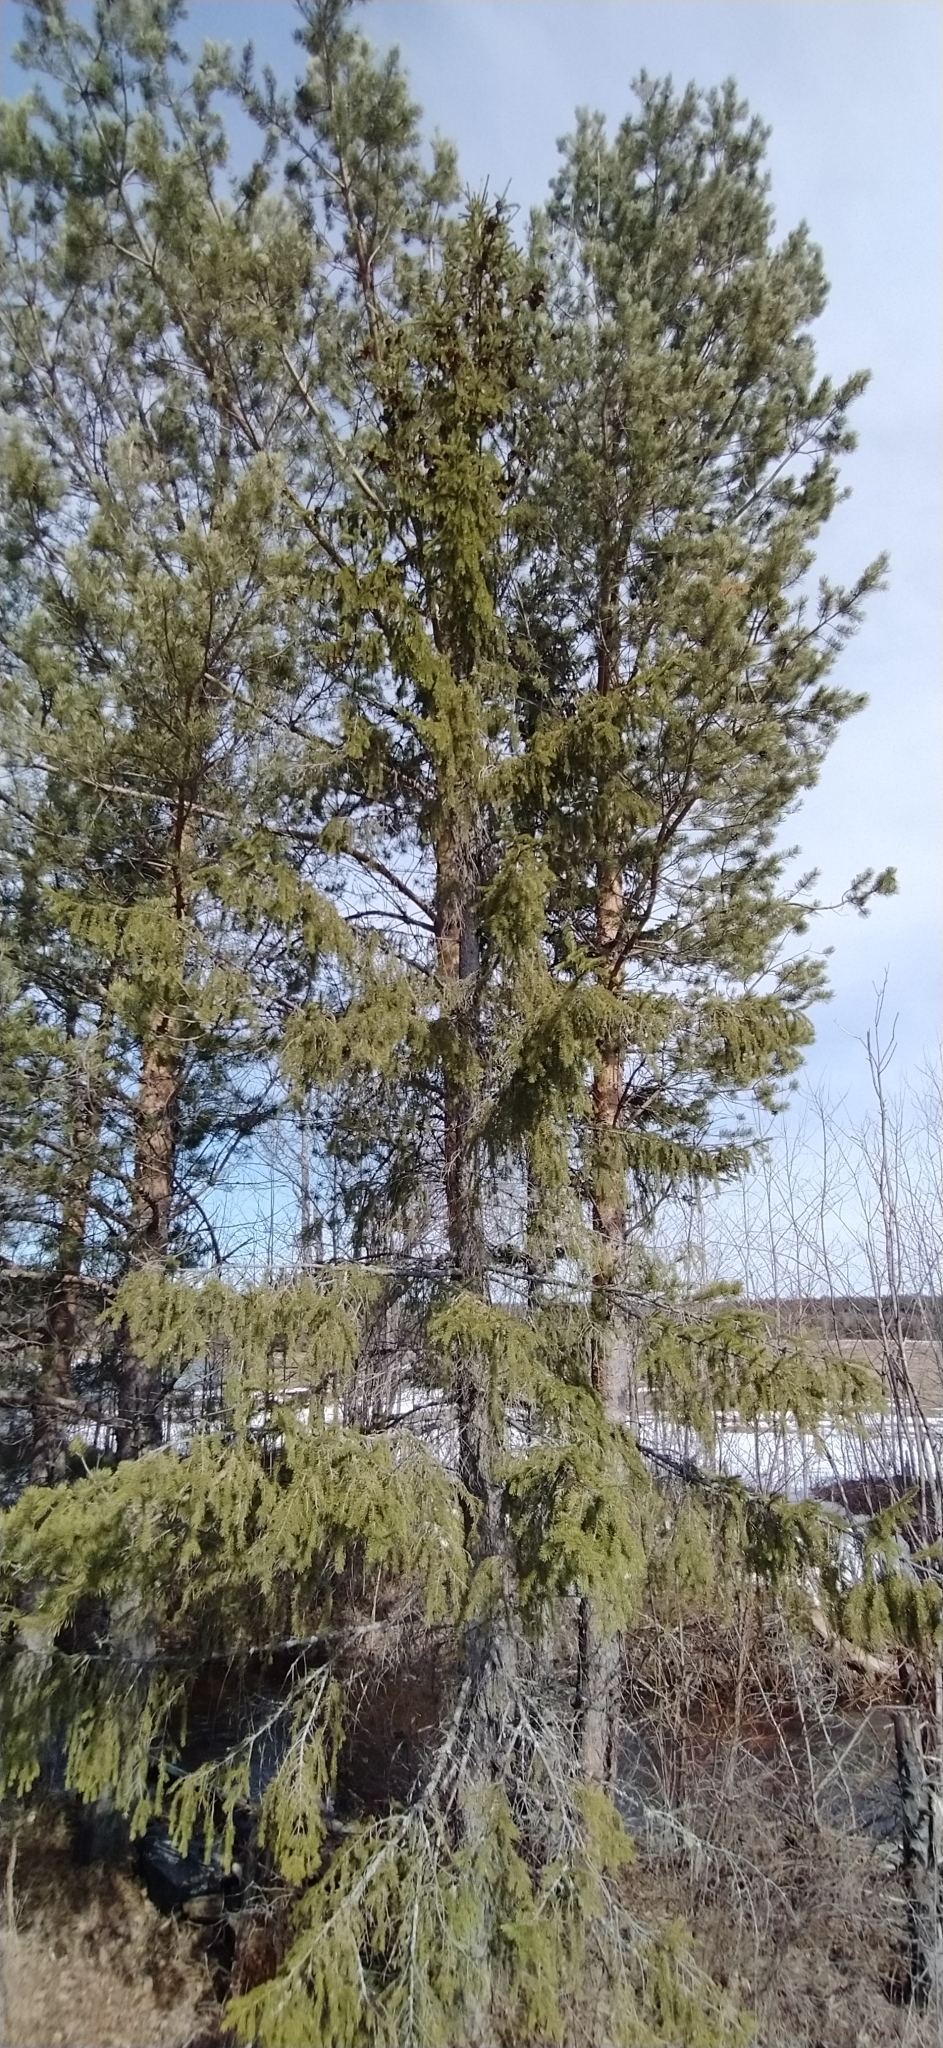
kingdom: Plantae
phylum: Tracheophyta
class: Pinopsida
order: Pinales
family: Pinaceae
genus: Picea
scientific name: Picea obovata
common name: Siberian spruce
